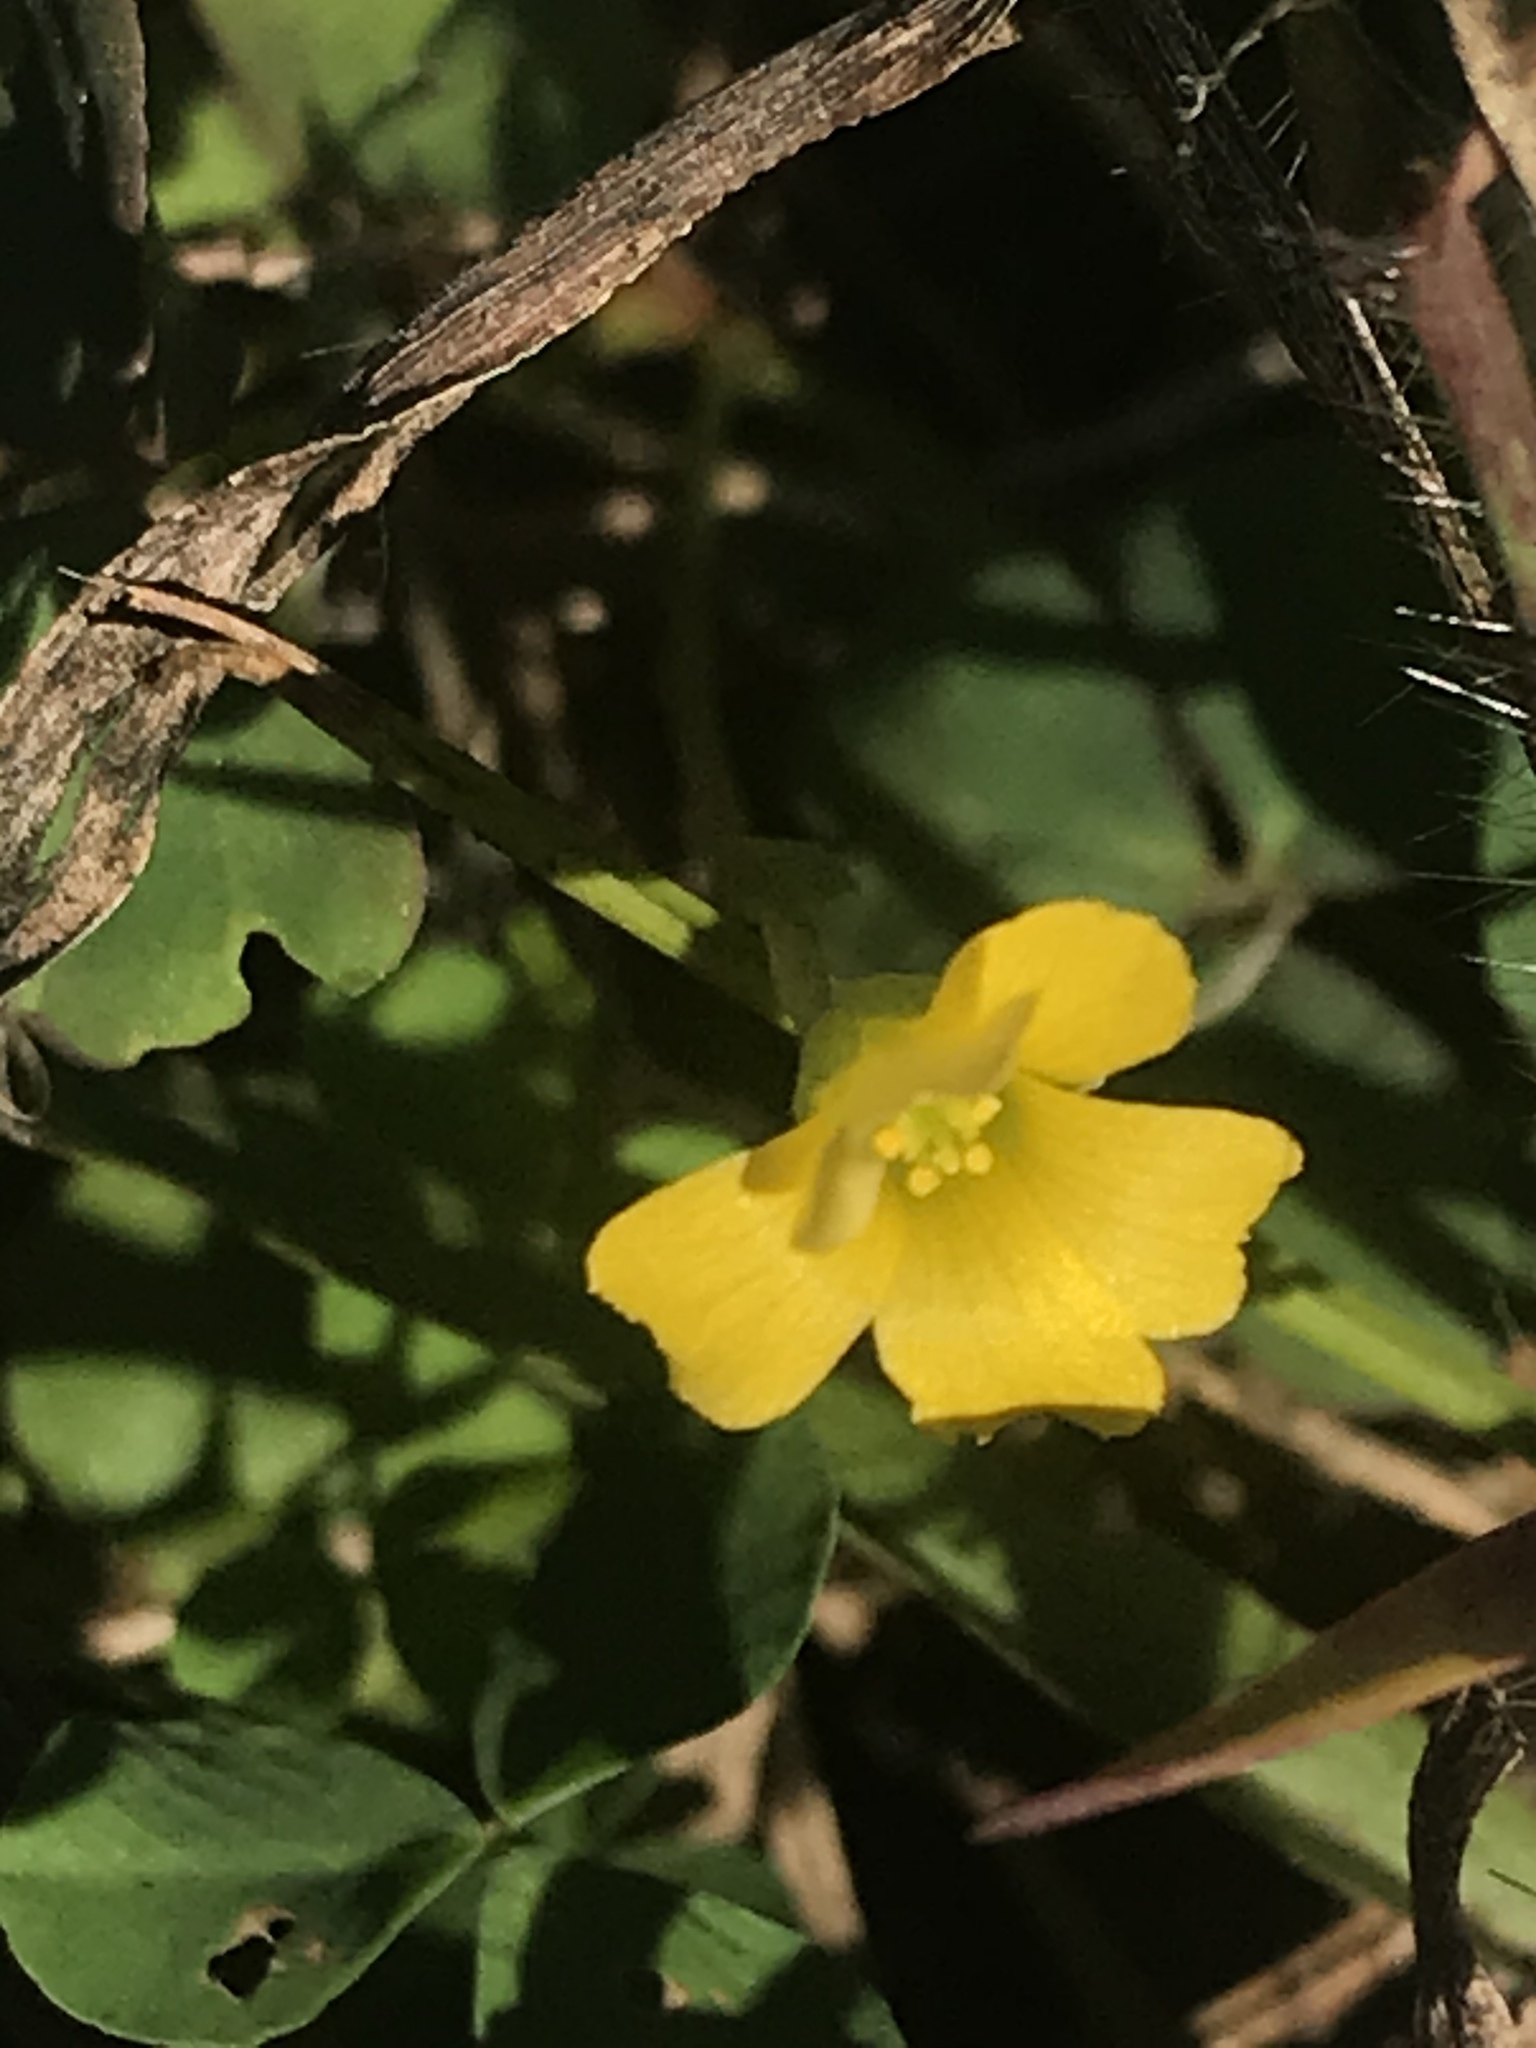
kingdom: Plantae
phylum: Tracheophyta
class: Magnoliopsida
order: Oxalidales
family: Oxalidaceae
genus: Oxalis
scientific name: Oxalis corniculata
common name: Procumbent yellow-sorrel
